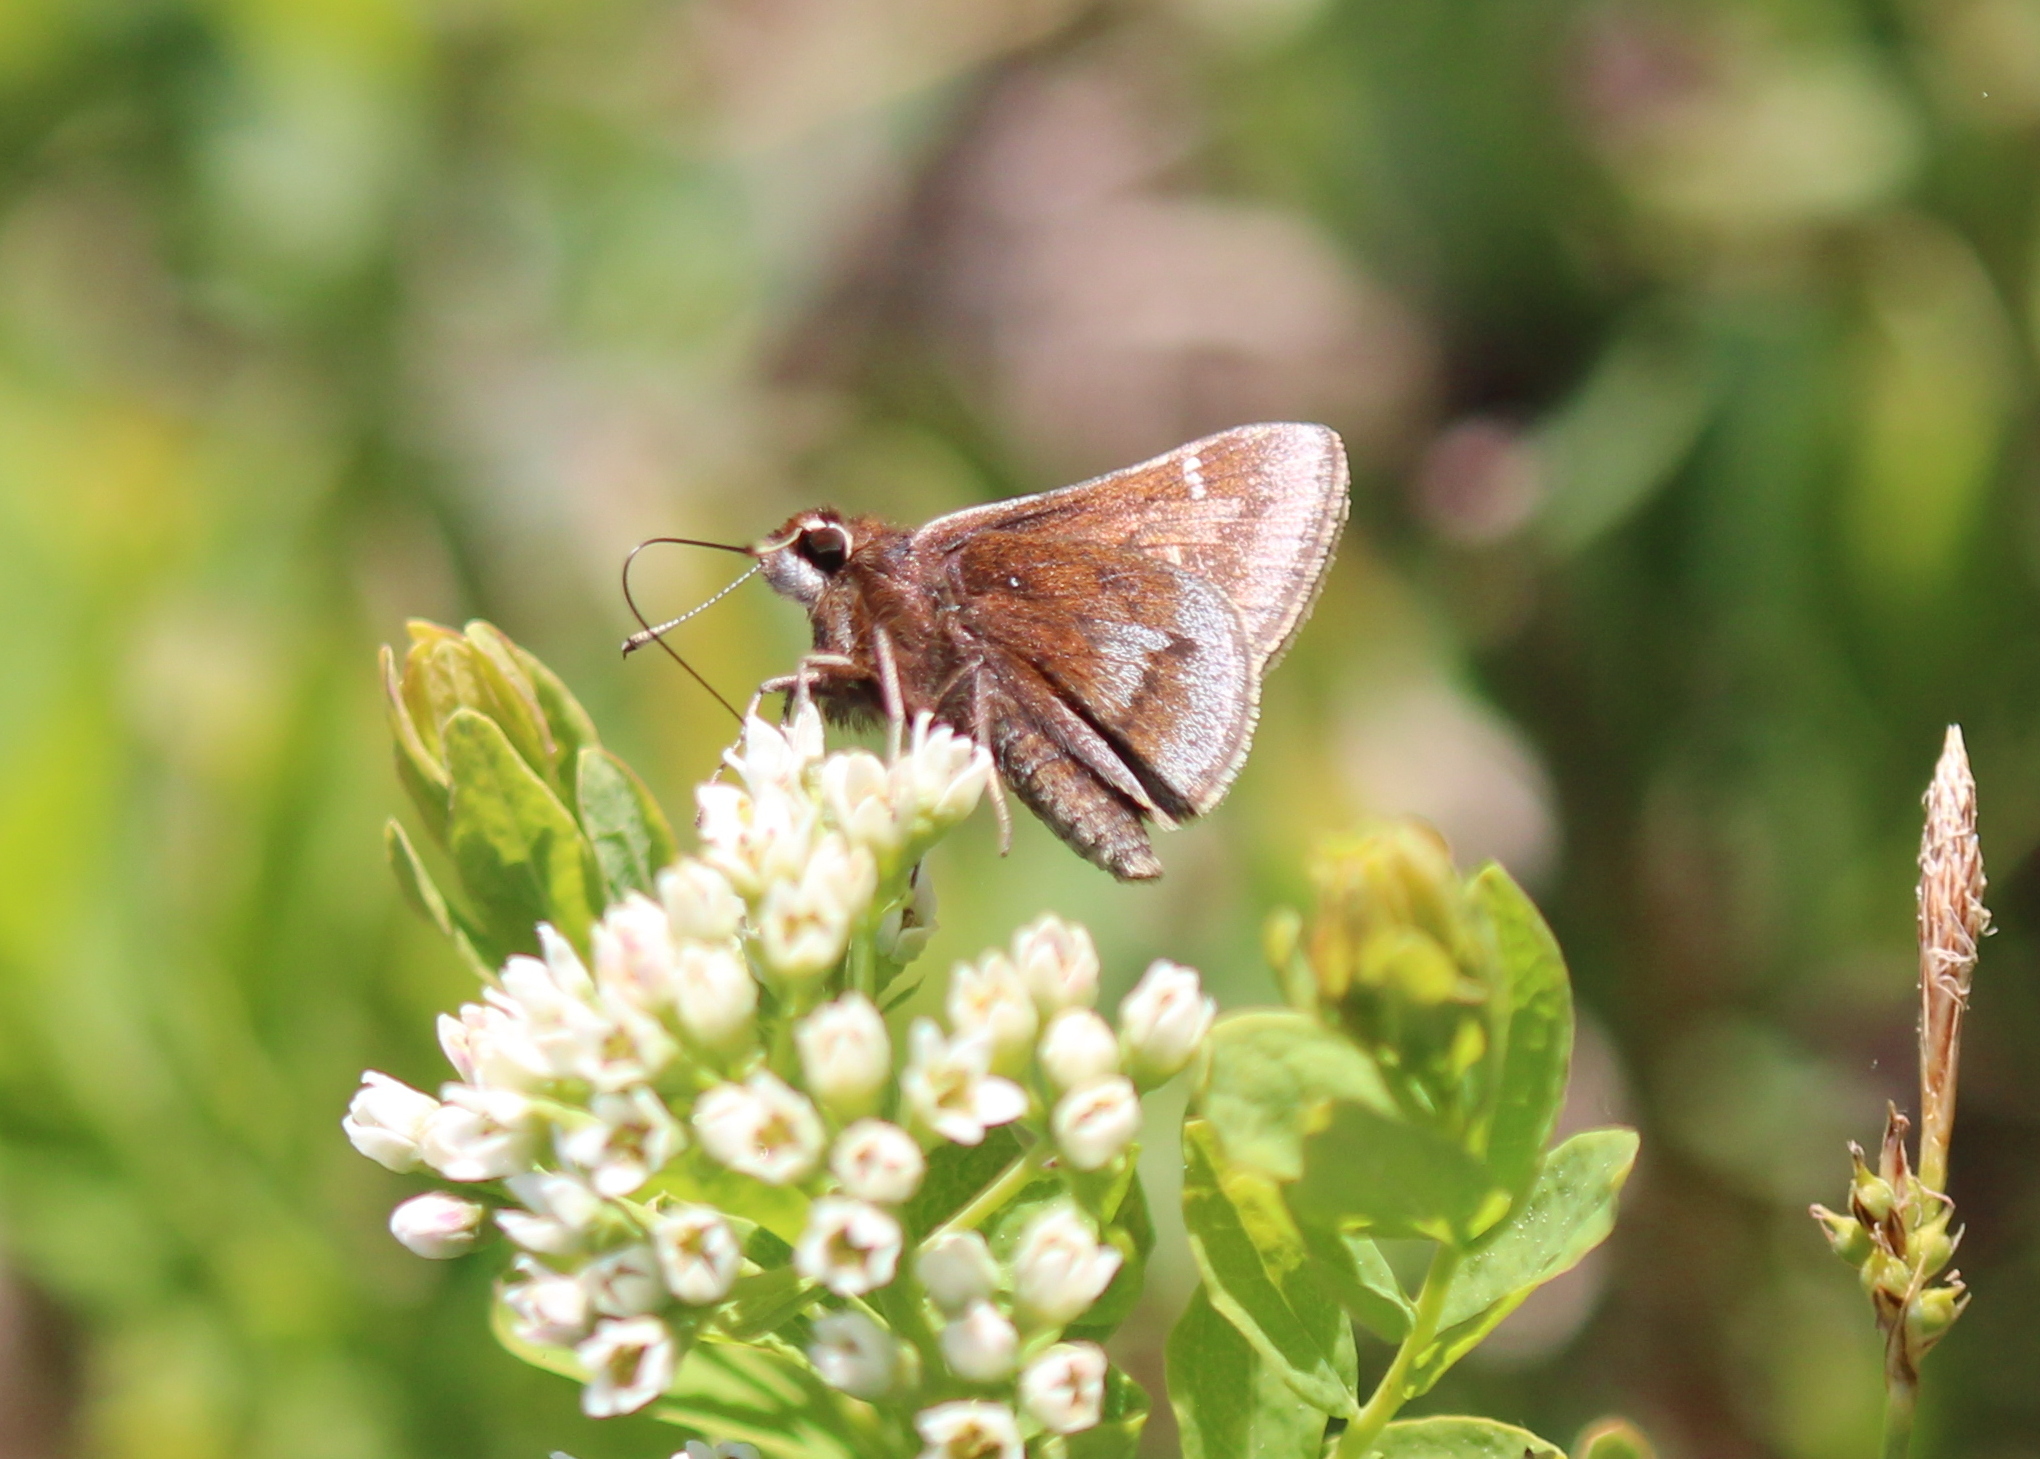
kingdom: Animalia
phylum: Arthropoda
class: Insecta
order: Lepidoptera
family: Hesperiidae
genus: Atrytonopsis
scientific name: Atrytonopsis hianna
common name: Dusted skipper
